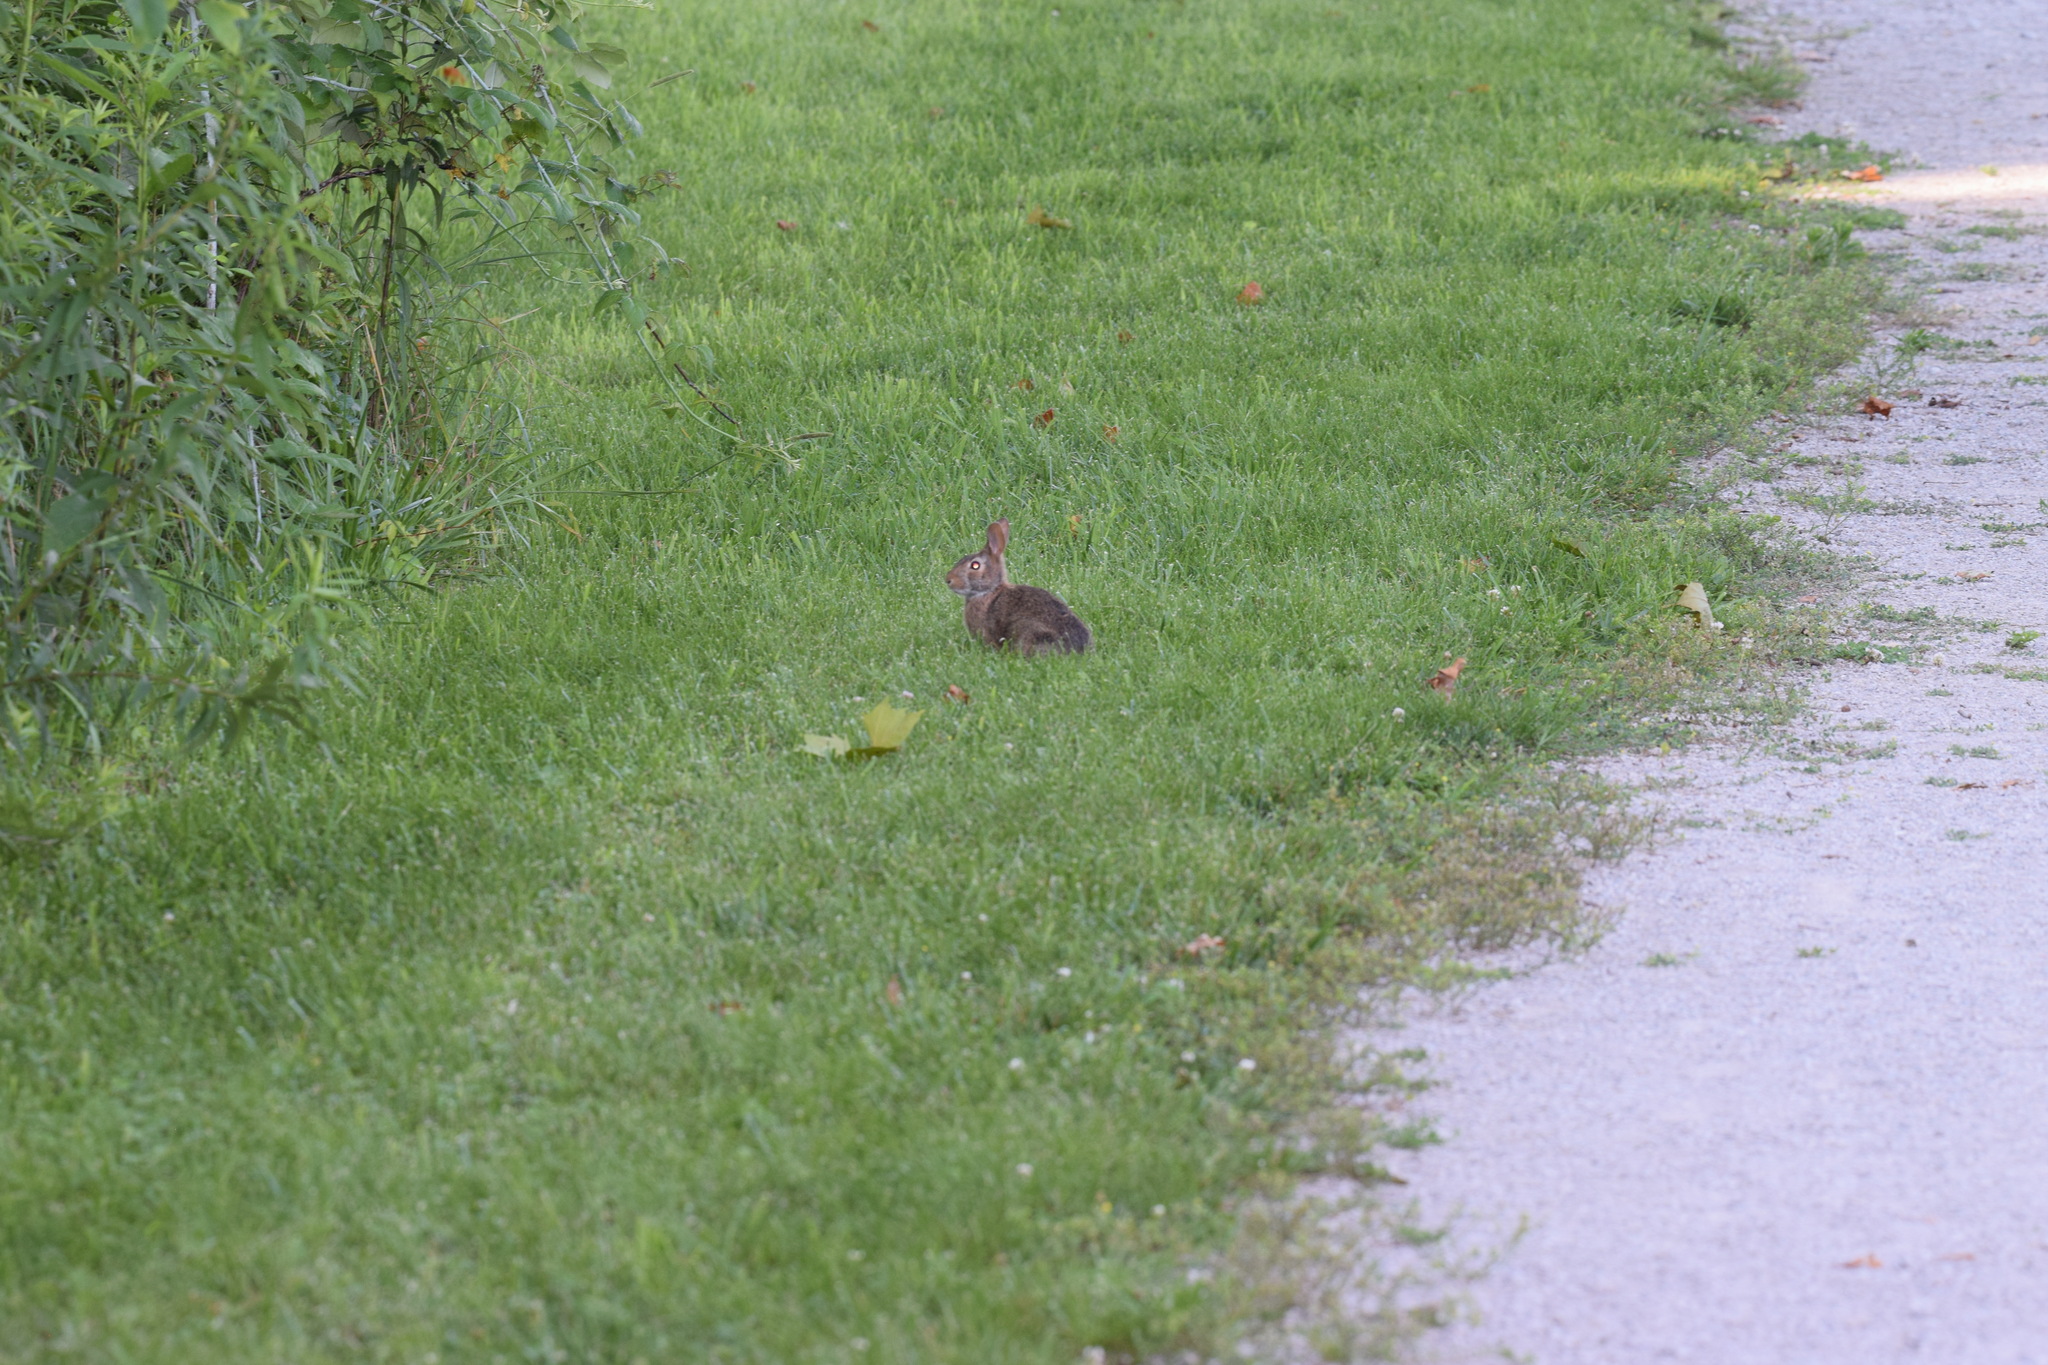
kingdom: Animalia
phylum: Chordata
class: Mammalia
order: Lagomorpha
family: Leporidae
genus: Sylvilagus
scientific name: Sylvilagus floridanus
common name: Eastern cottontail
